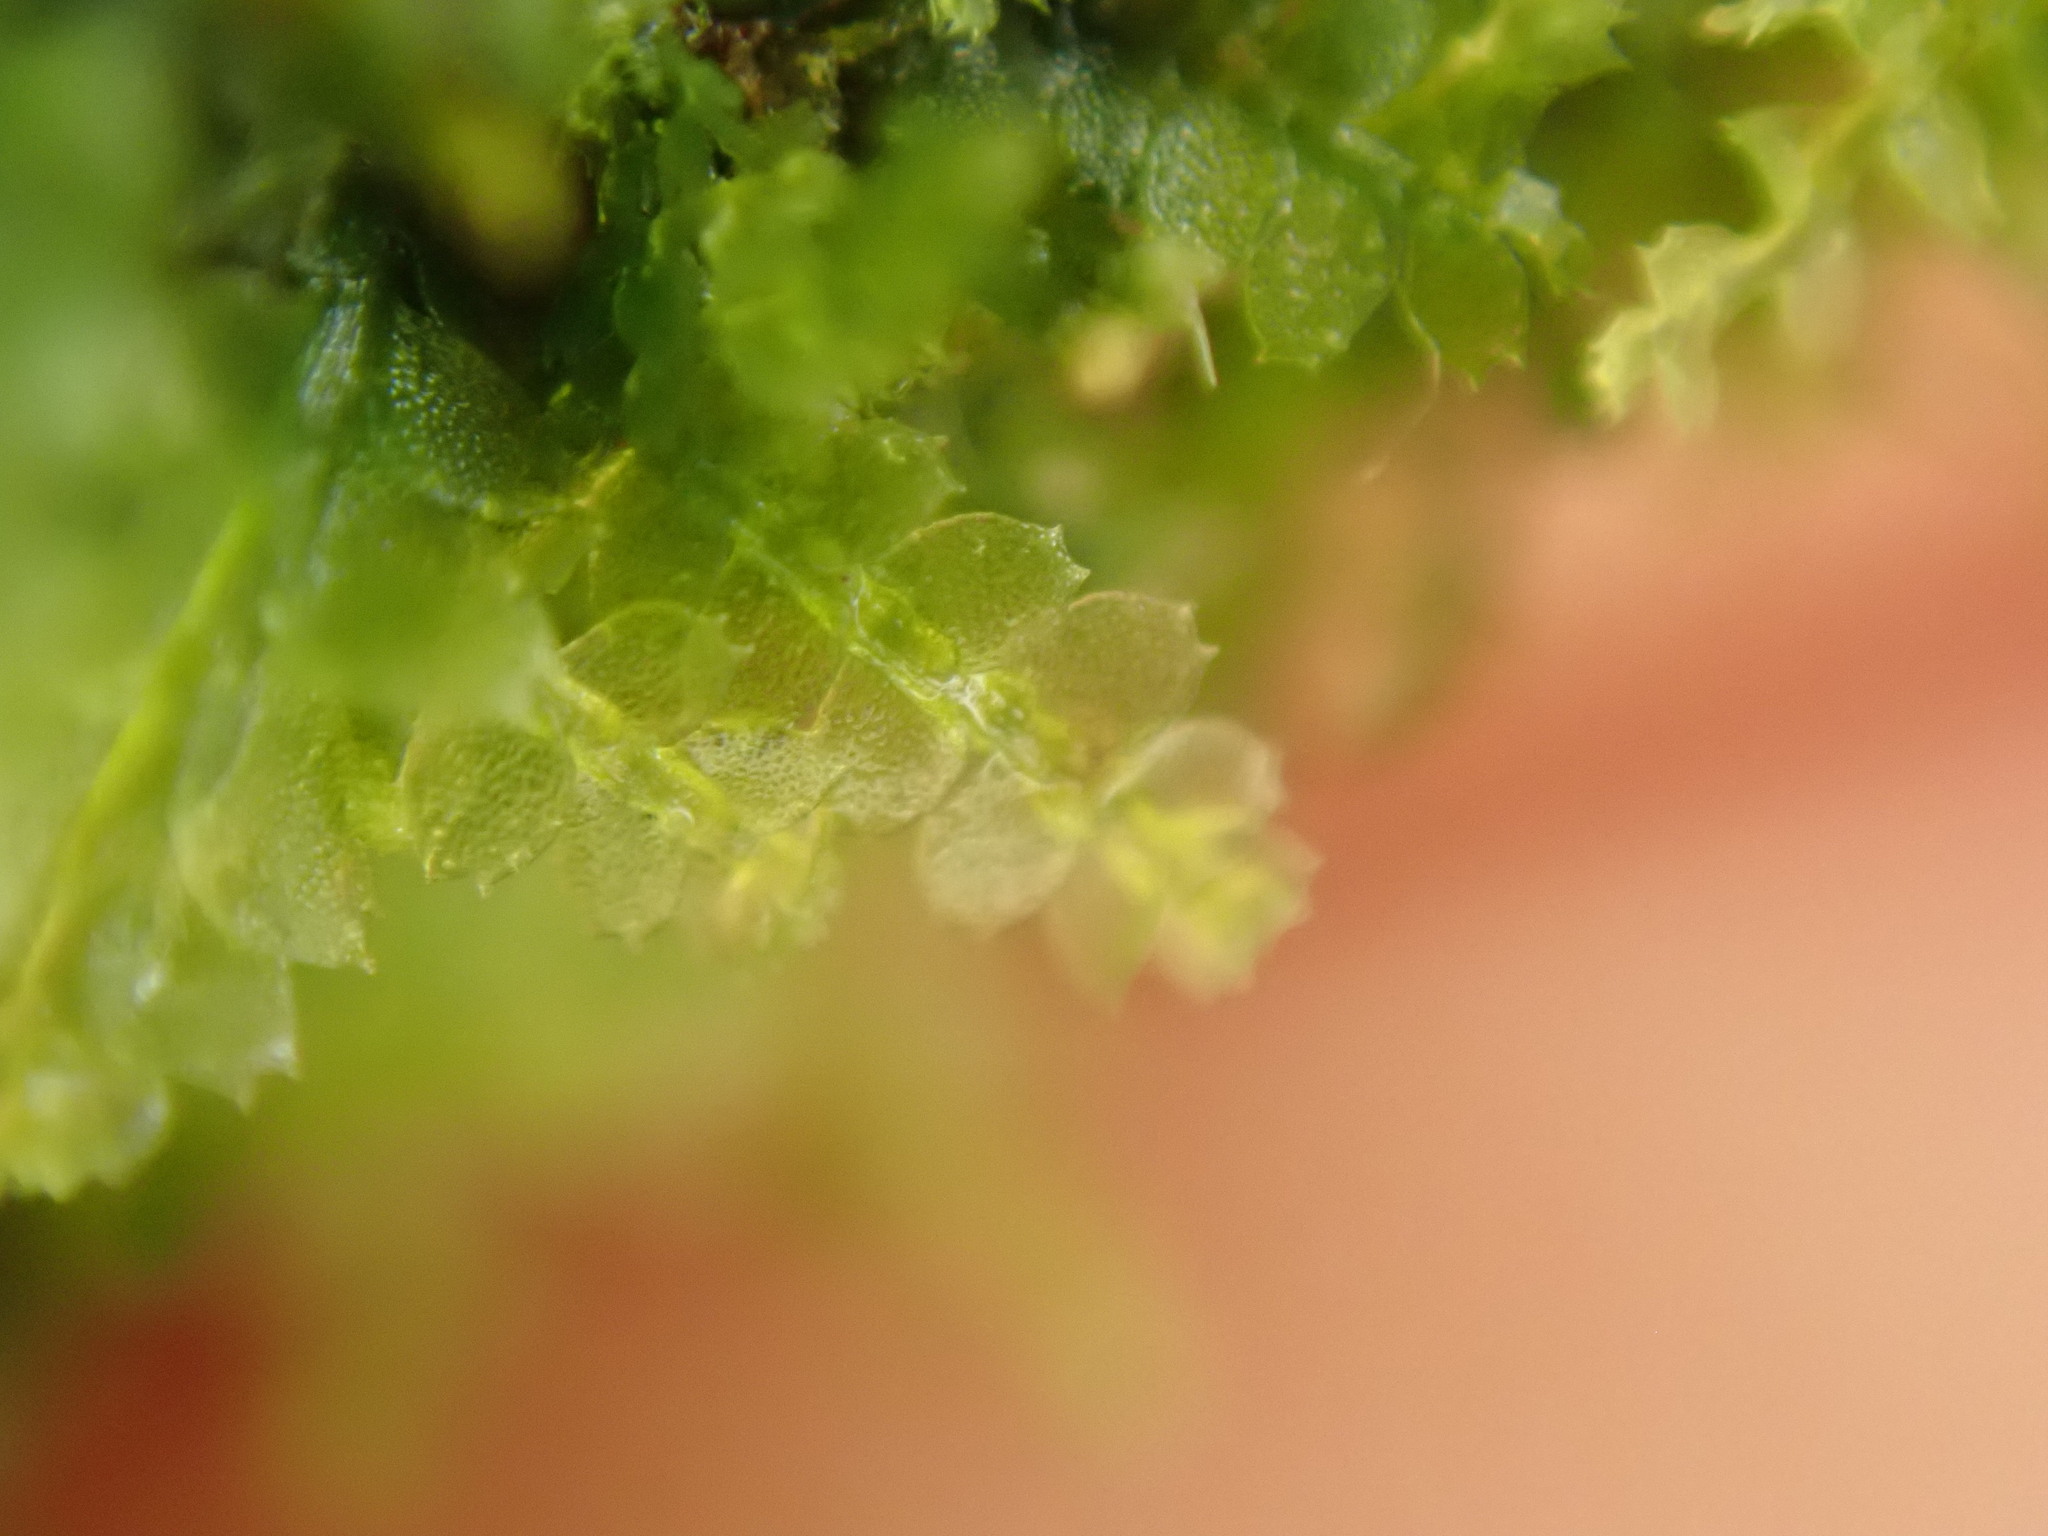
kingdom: Plantae
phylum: Marchantiophyta
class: Jungermanniopsida
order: Jungermanniales
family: Calypogeiaceae
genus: Asperifolia
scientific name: Asperifolia arguta
